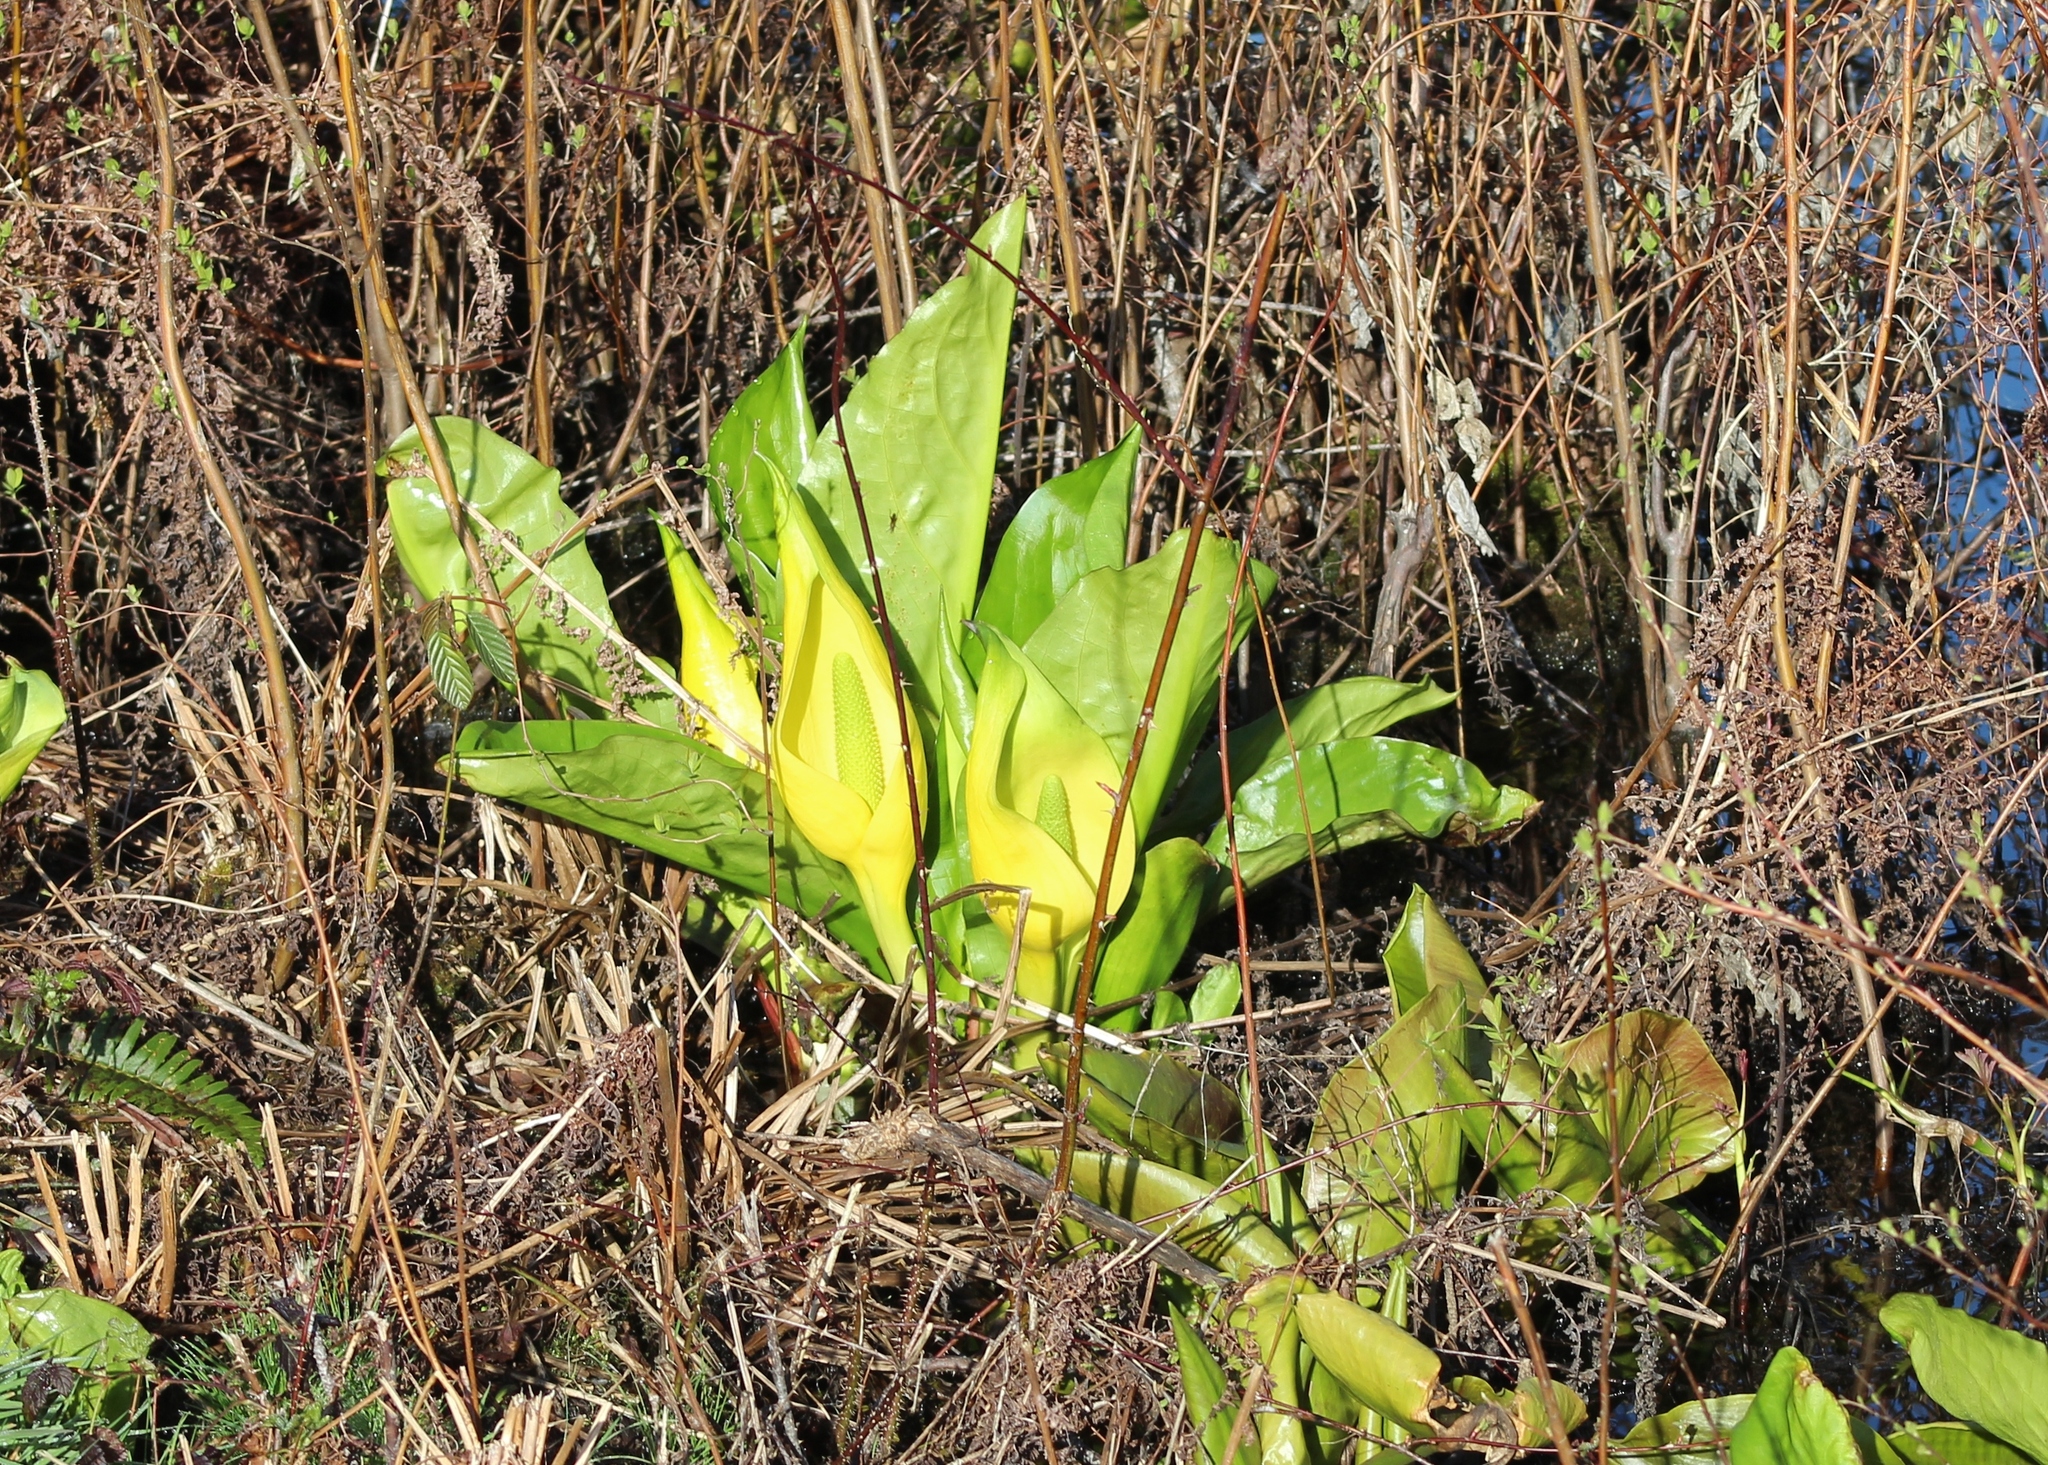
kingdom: Plantae
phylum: Tracheophyta
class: Liliopsida
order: Alismatales
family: Araceae
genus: Lysichiton
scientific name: Lysichiton americanus
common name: American skunk cabbage
